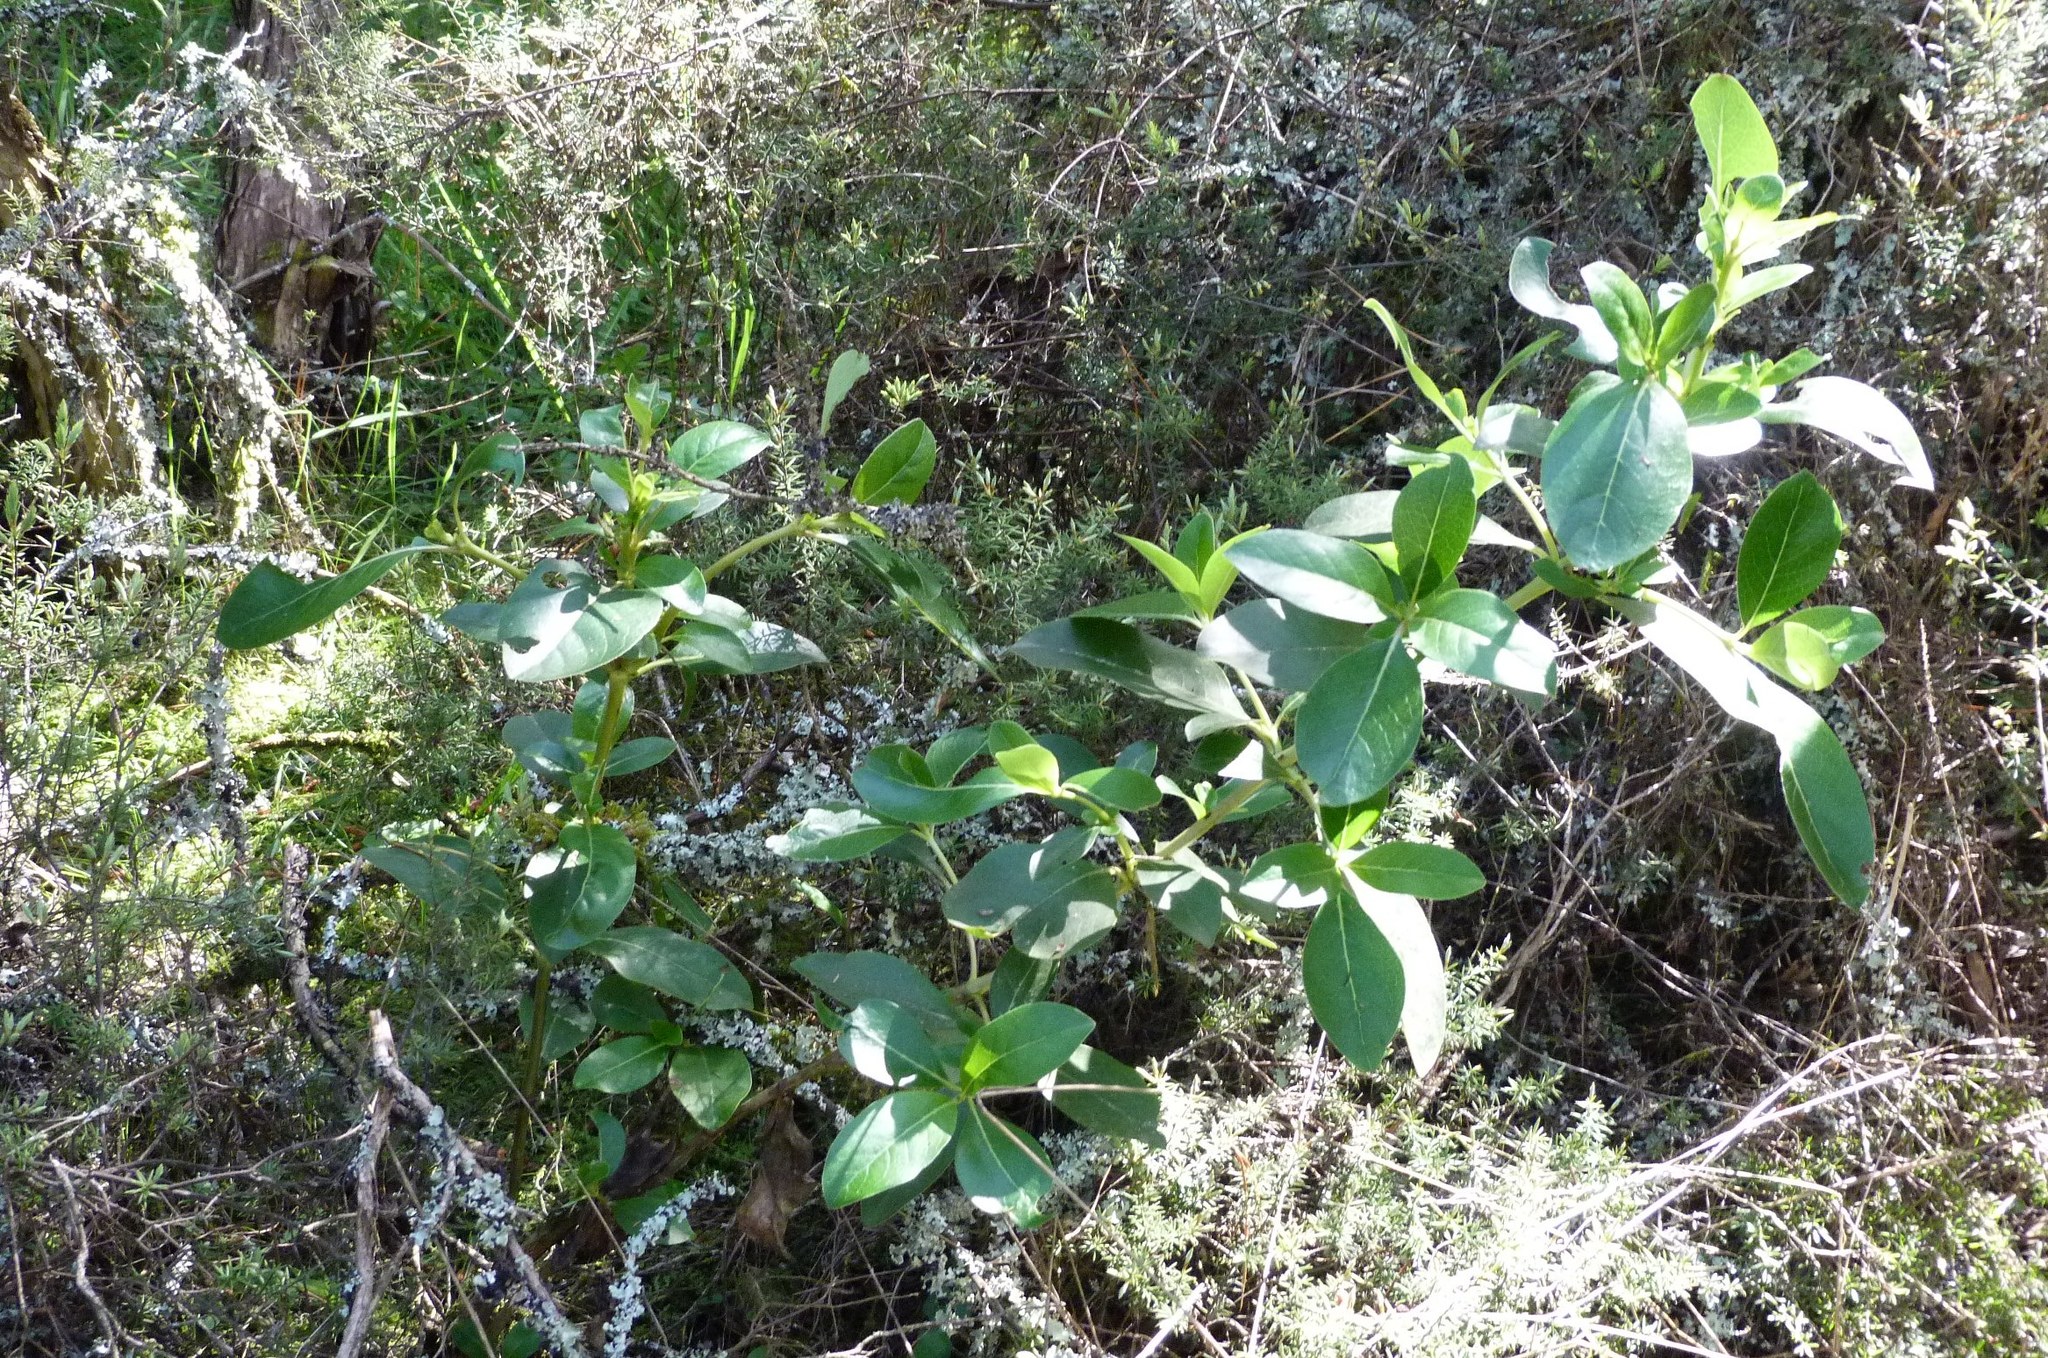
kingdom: Plantae
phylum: Tracheophyta
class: Magnoliopsida
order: Gentianales
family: Rubiaceae
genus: Coprosma
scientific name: Coprosma robusta
